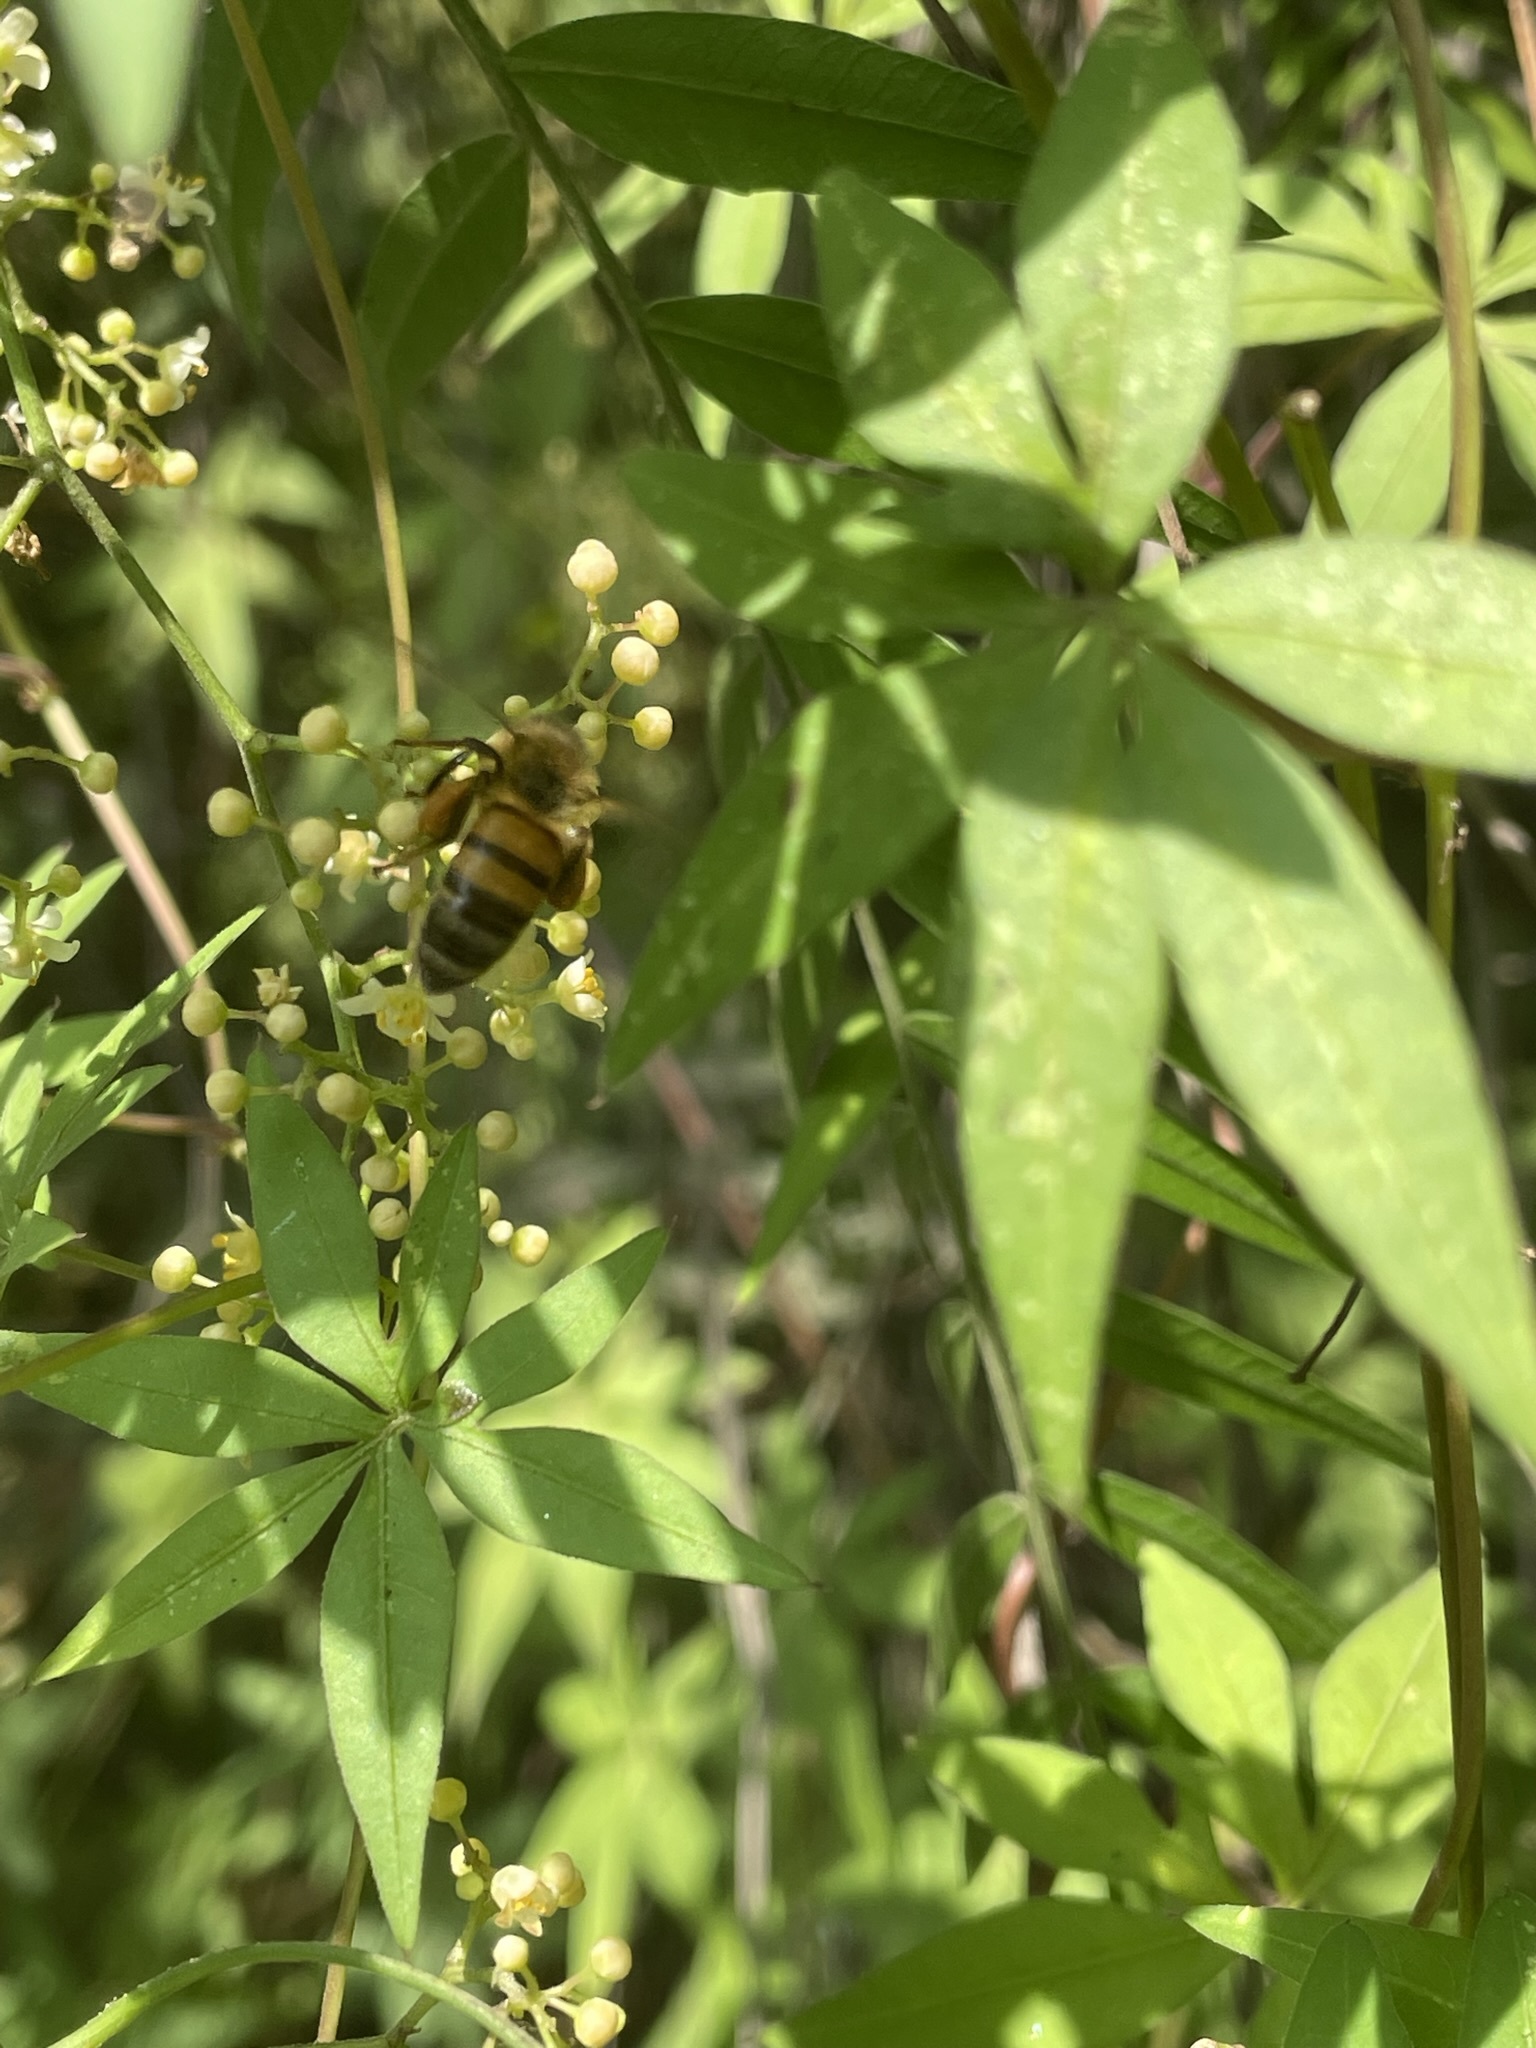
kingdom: Animalia
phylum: Arthropoda
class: Insecta
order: Hymenoptera
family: Apidae
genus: Apis
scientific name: Apis mellifera
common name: Honey bee
